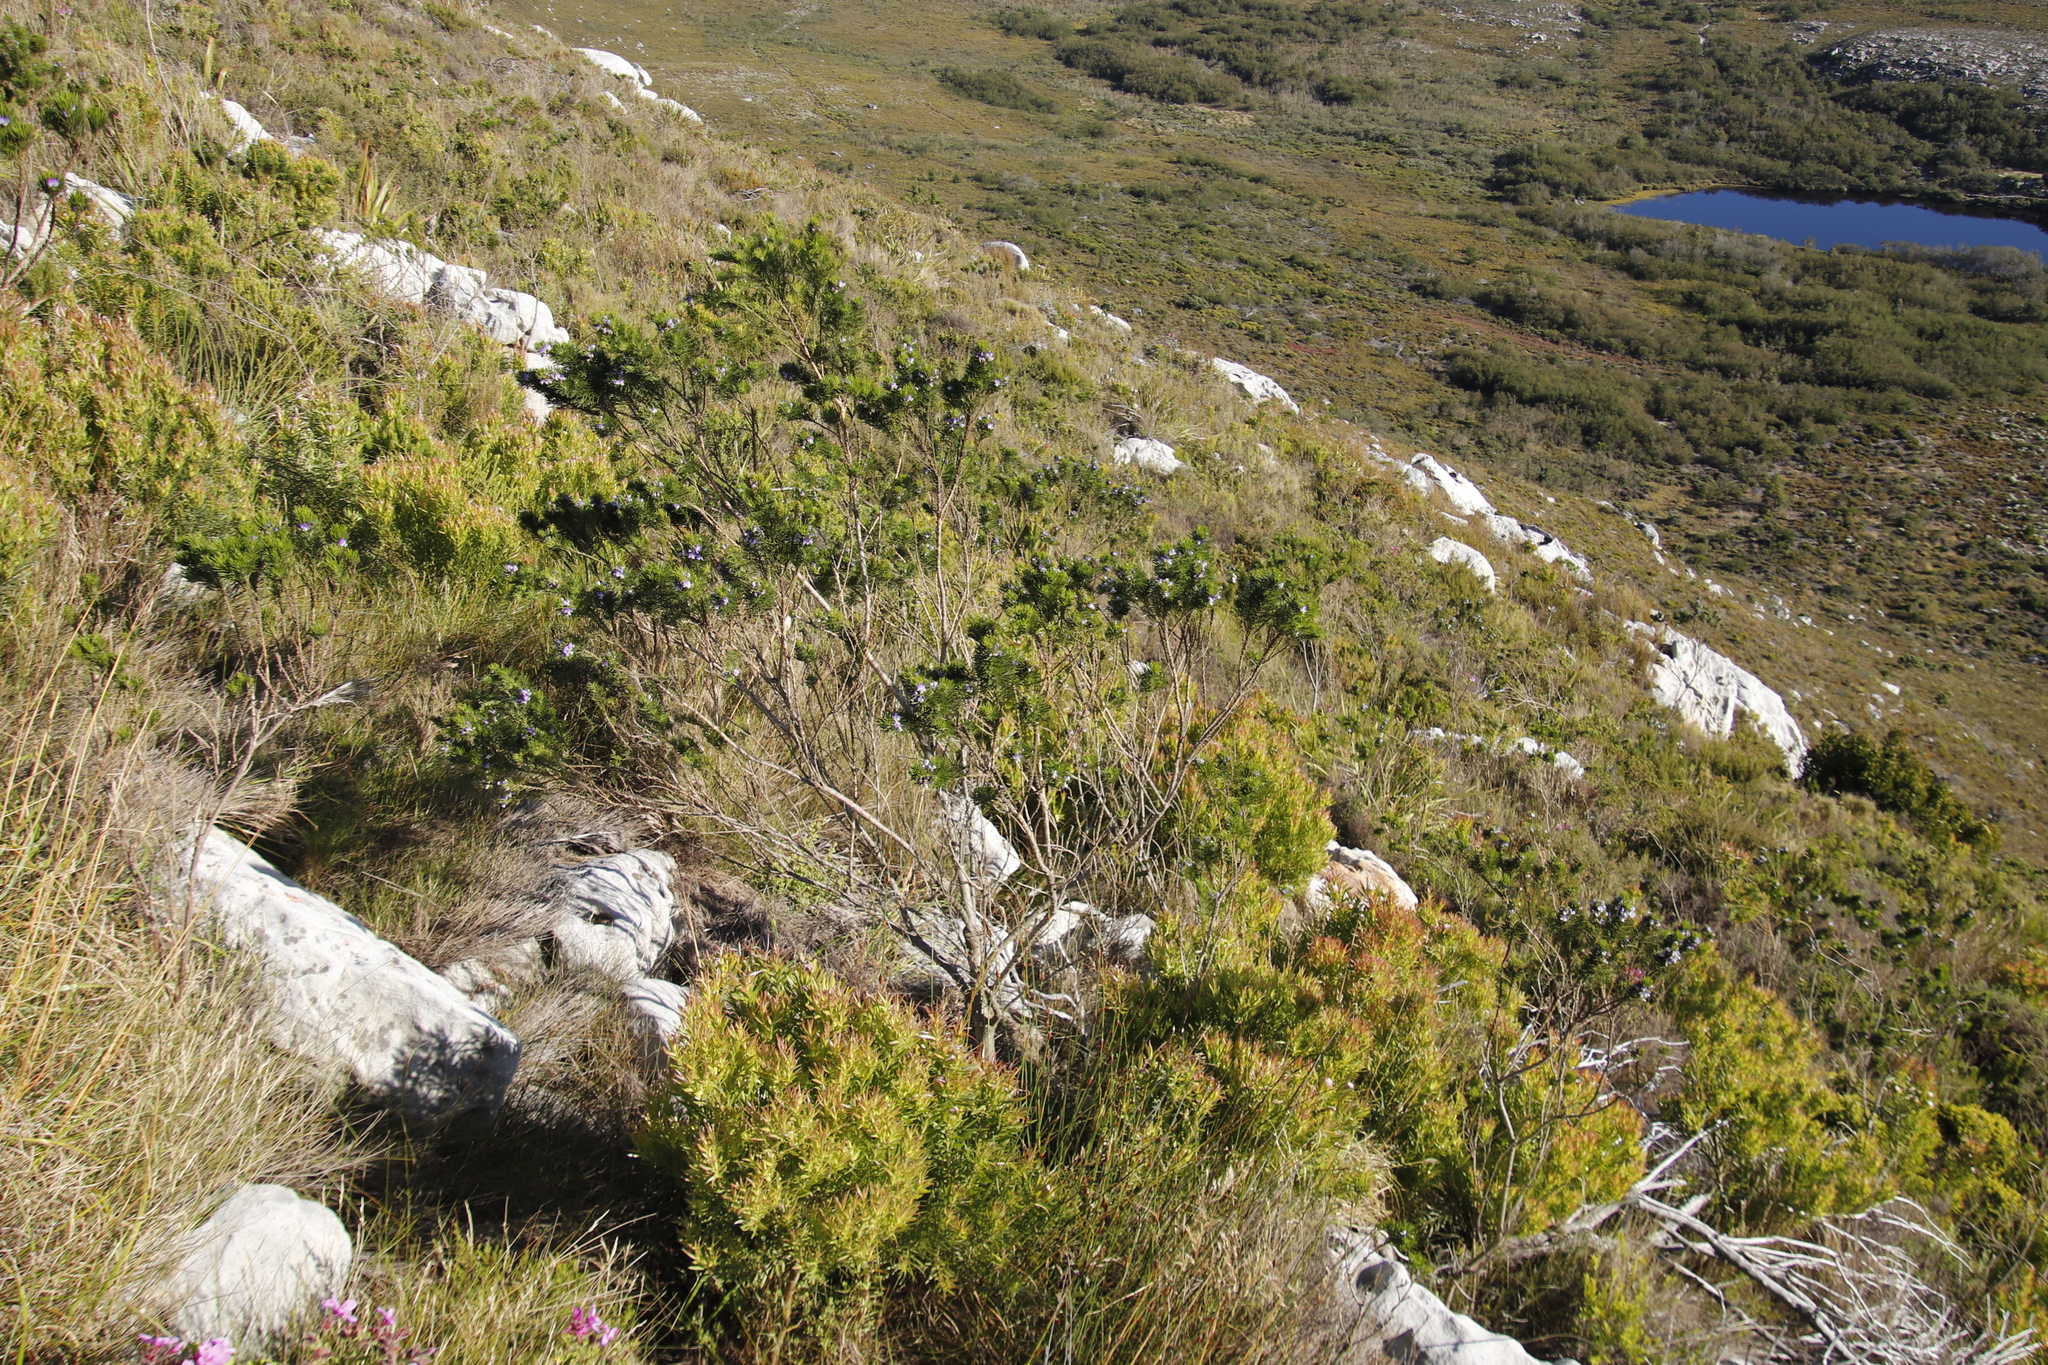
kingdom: Plantae
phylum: Tracheophyta
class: Magnoliopsida
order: Fabales
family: Fabaceae
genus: Psoralea
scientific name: Psoralea pinnata
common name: African scurfpea
